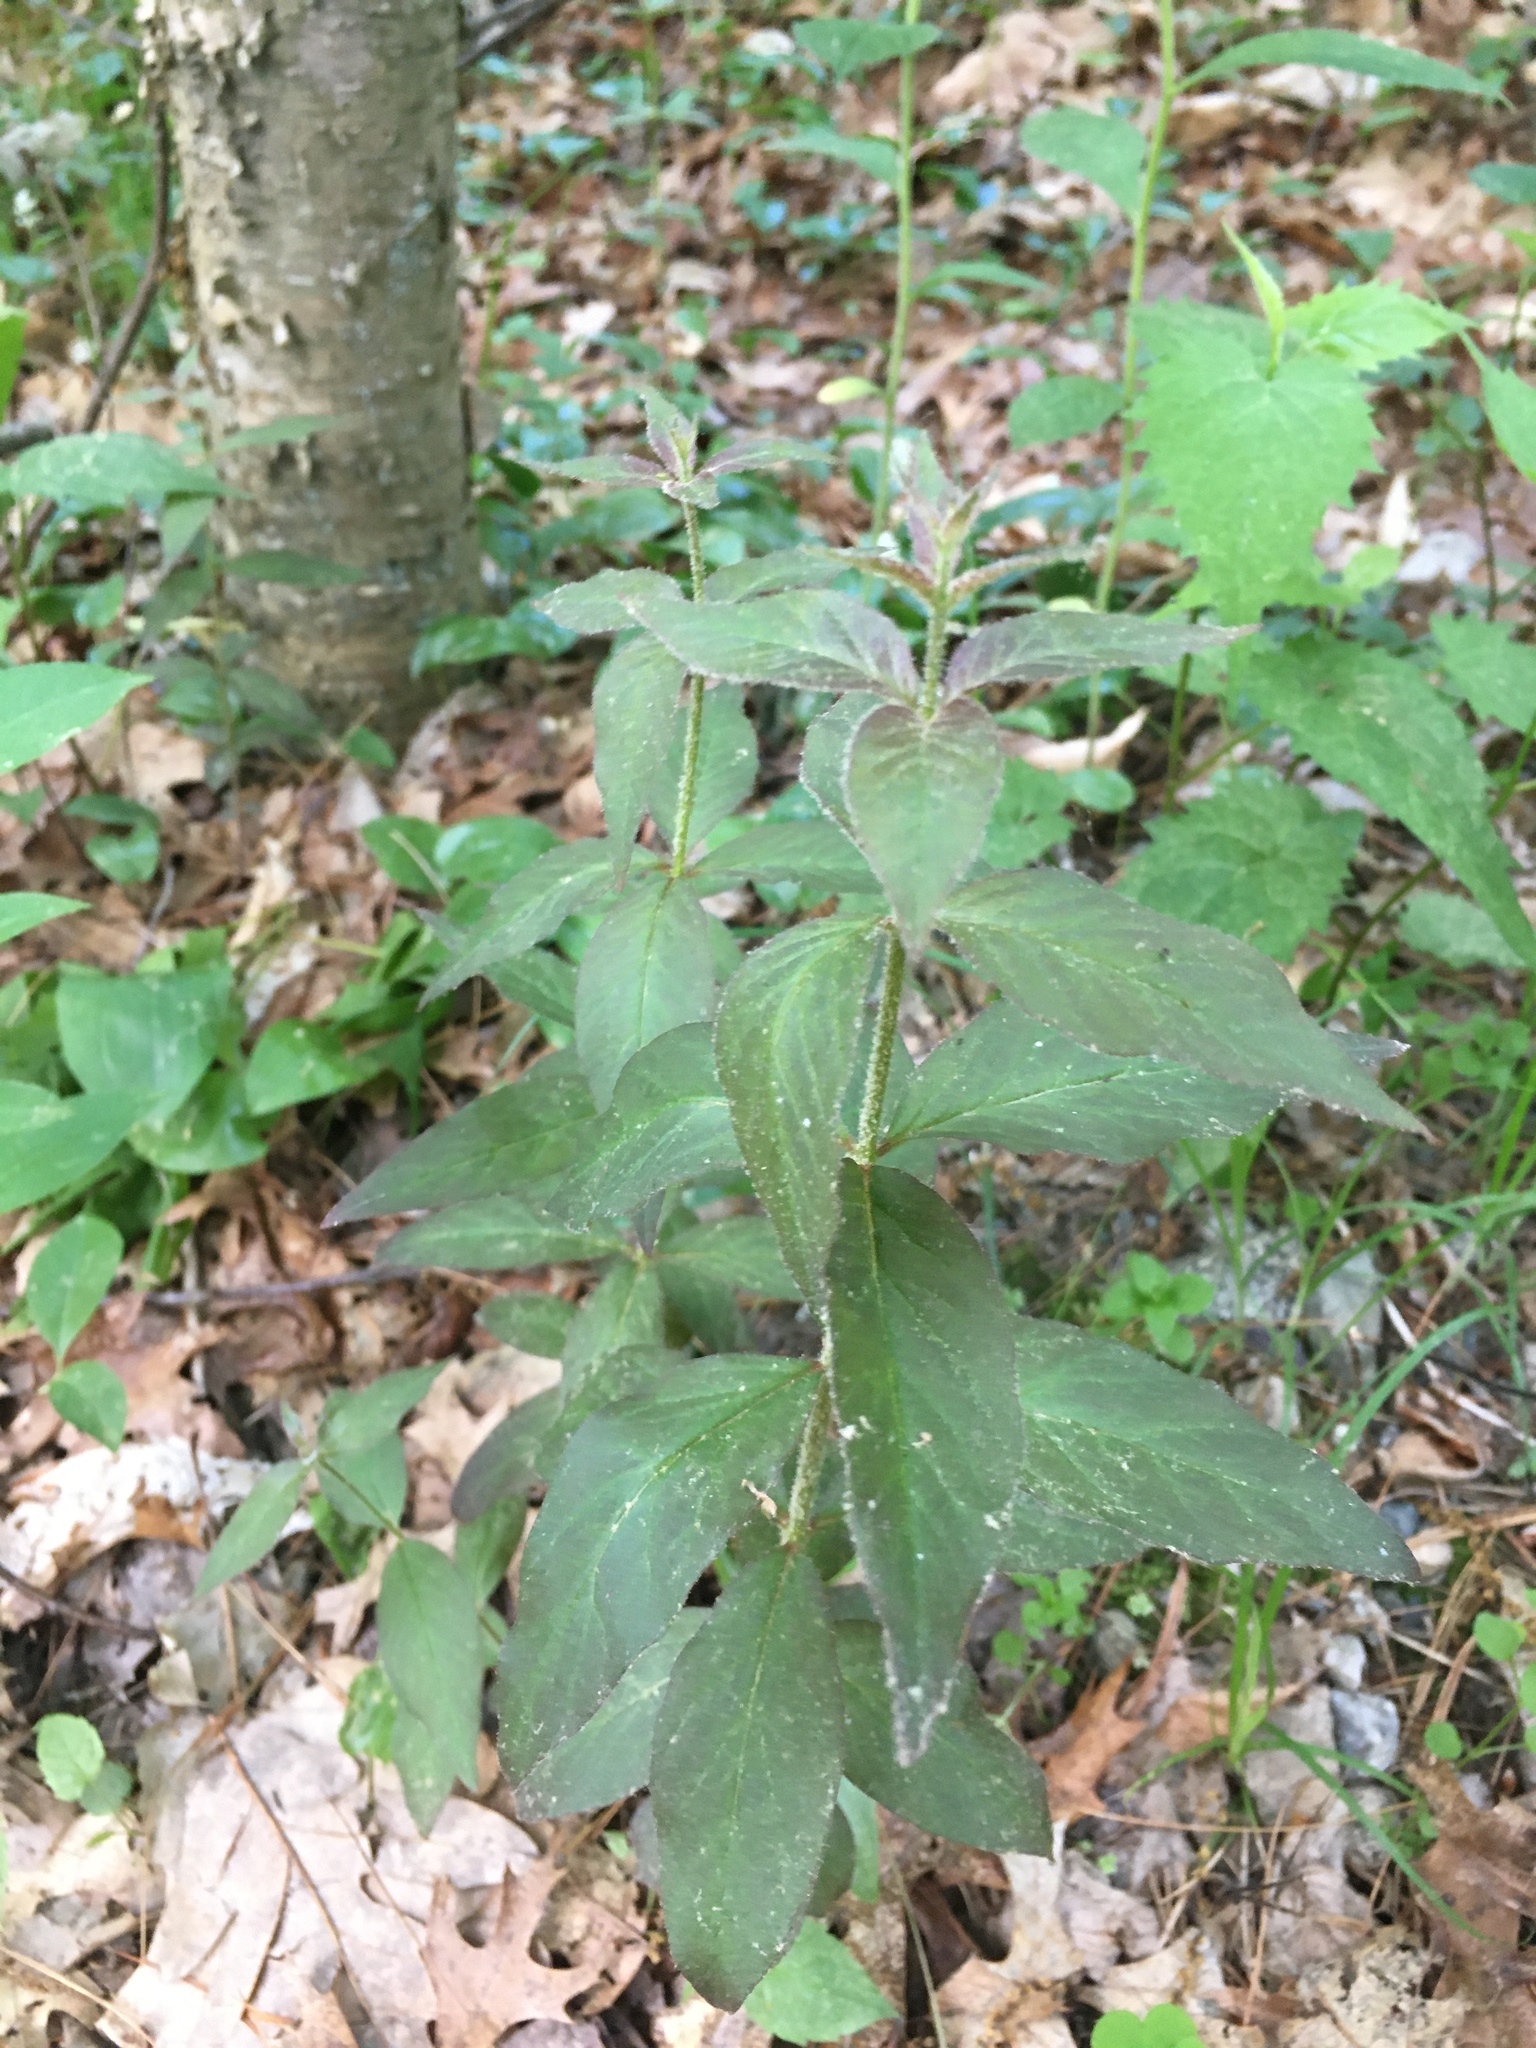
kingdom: Plantae
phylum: Tracheophyta
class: Magnoliopsida
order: Ericales
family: Primulaceae
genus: Lysimachia
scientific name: Lysimachia quadrifolia
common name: Whorled loosestrife
